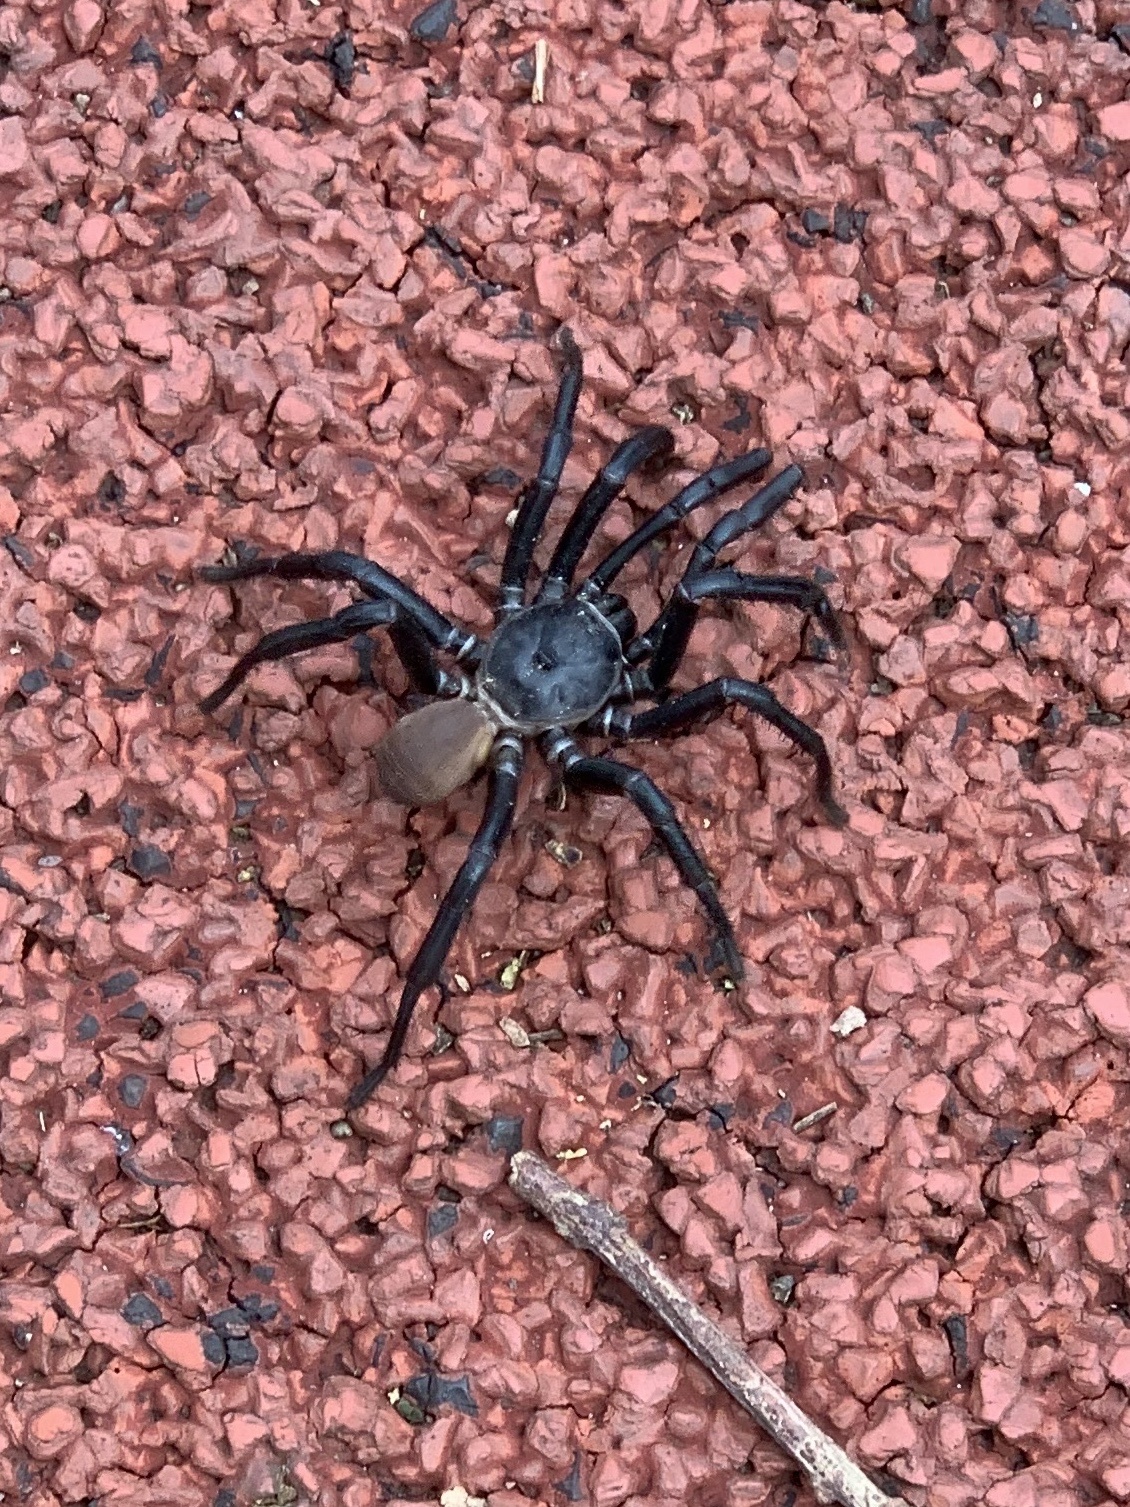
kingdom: Animalia
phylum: Arthropoda
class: Arachnida
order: Araneae
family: Halonoproctidae
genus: Bothriocyrtum
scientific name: Bothriocyrtum californicum
